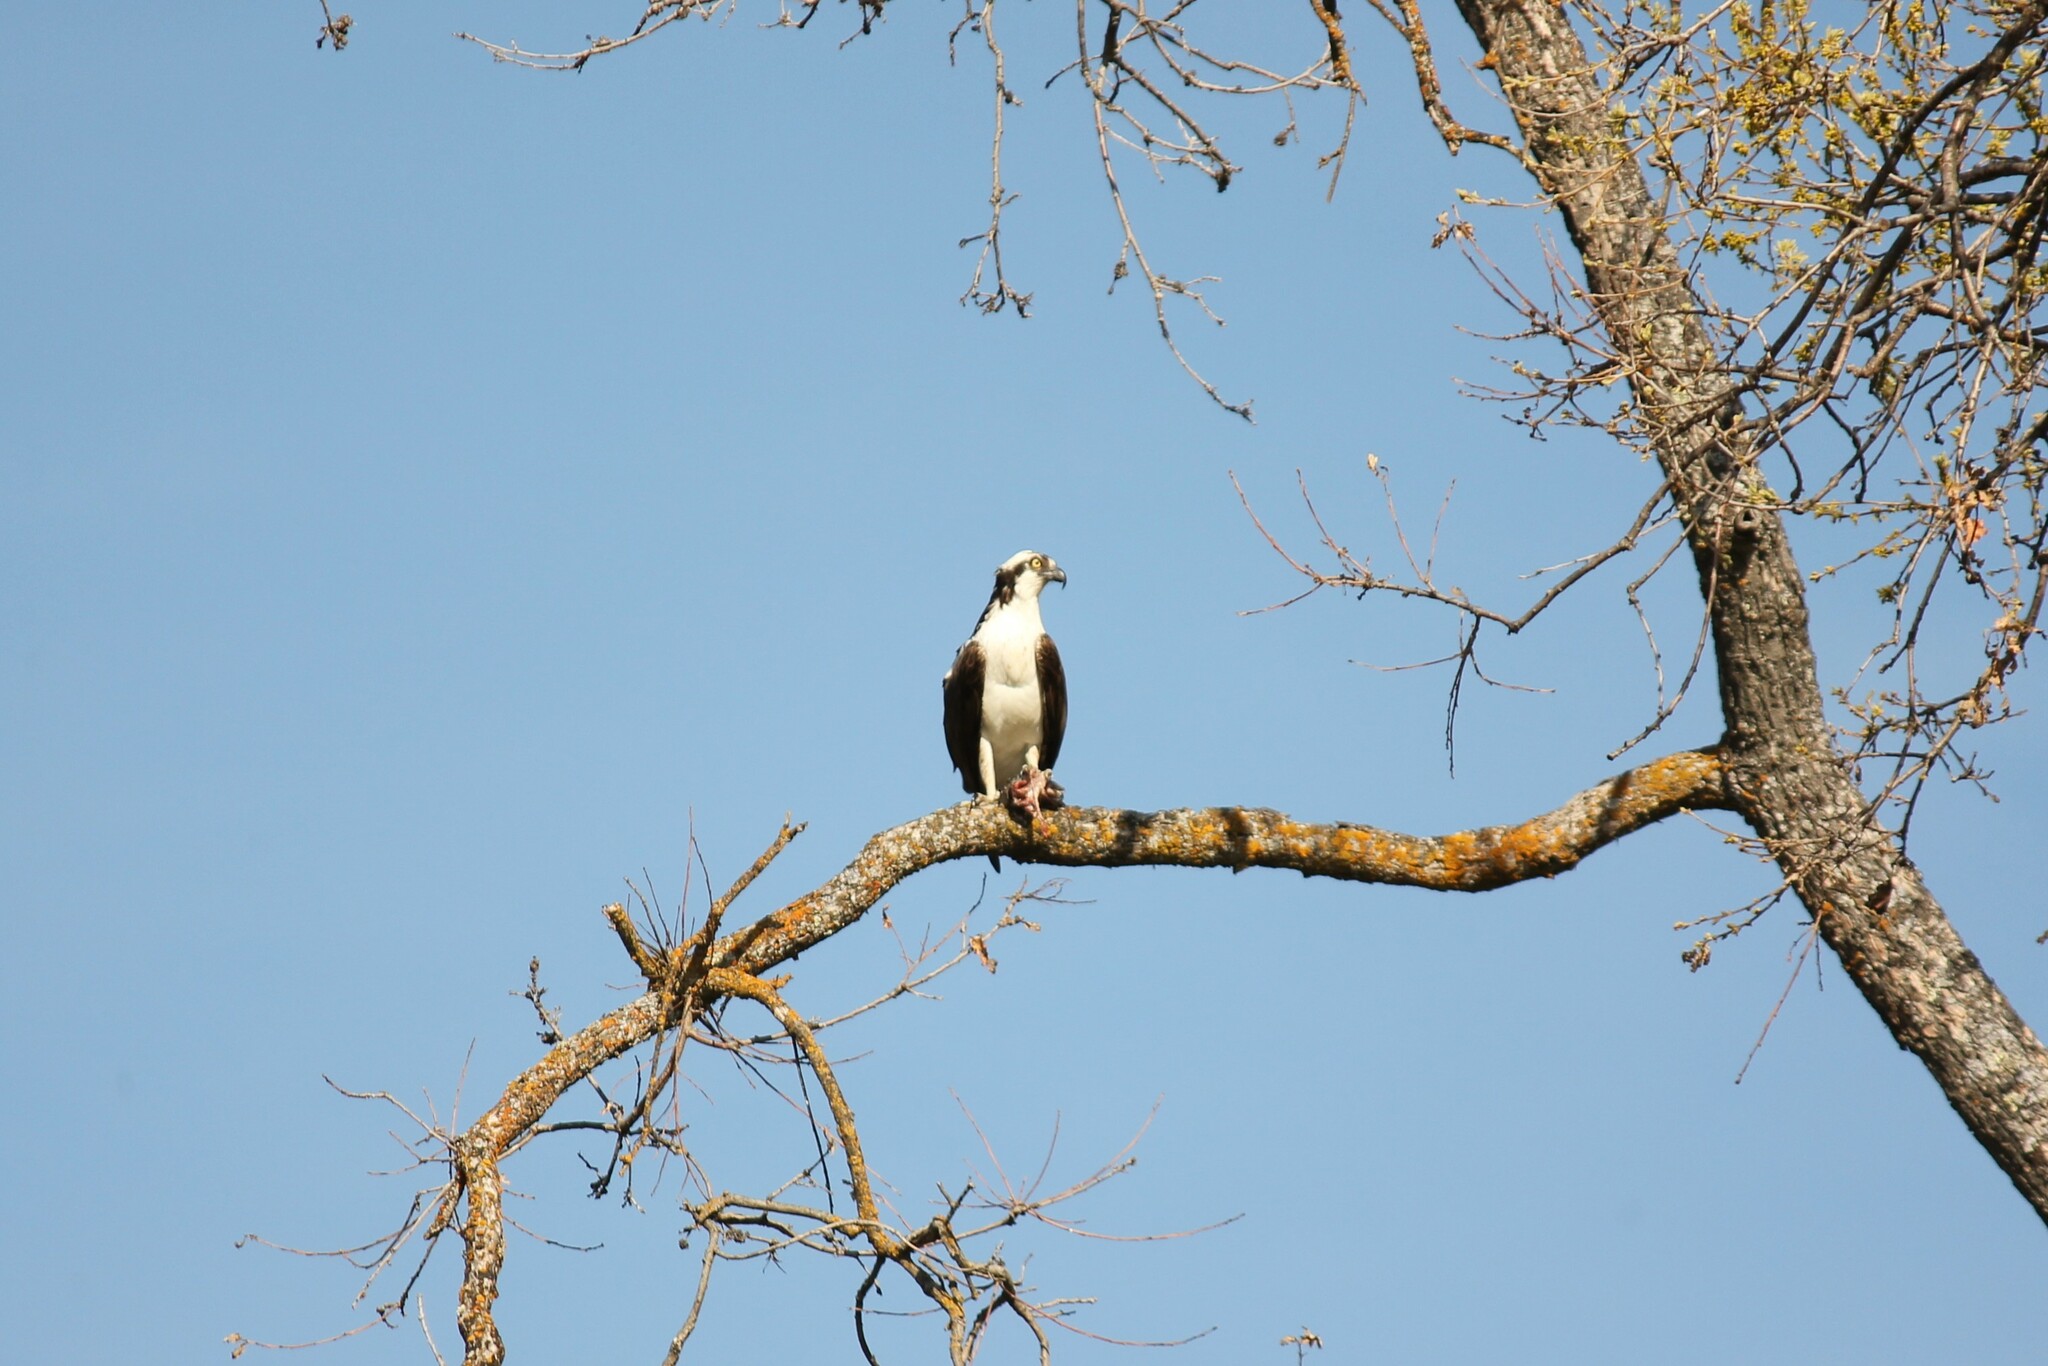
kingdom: Animalia
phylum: Chordata
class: Aves
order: Accipitriformes
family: Pandionidae
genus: Pandion
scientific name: Pandion haliaetus
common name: Osprey
